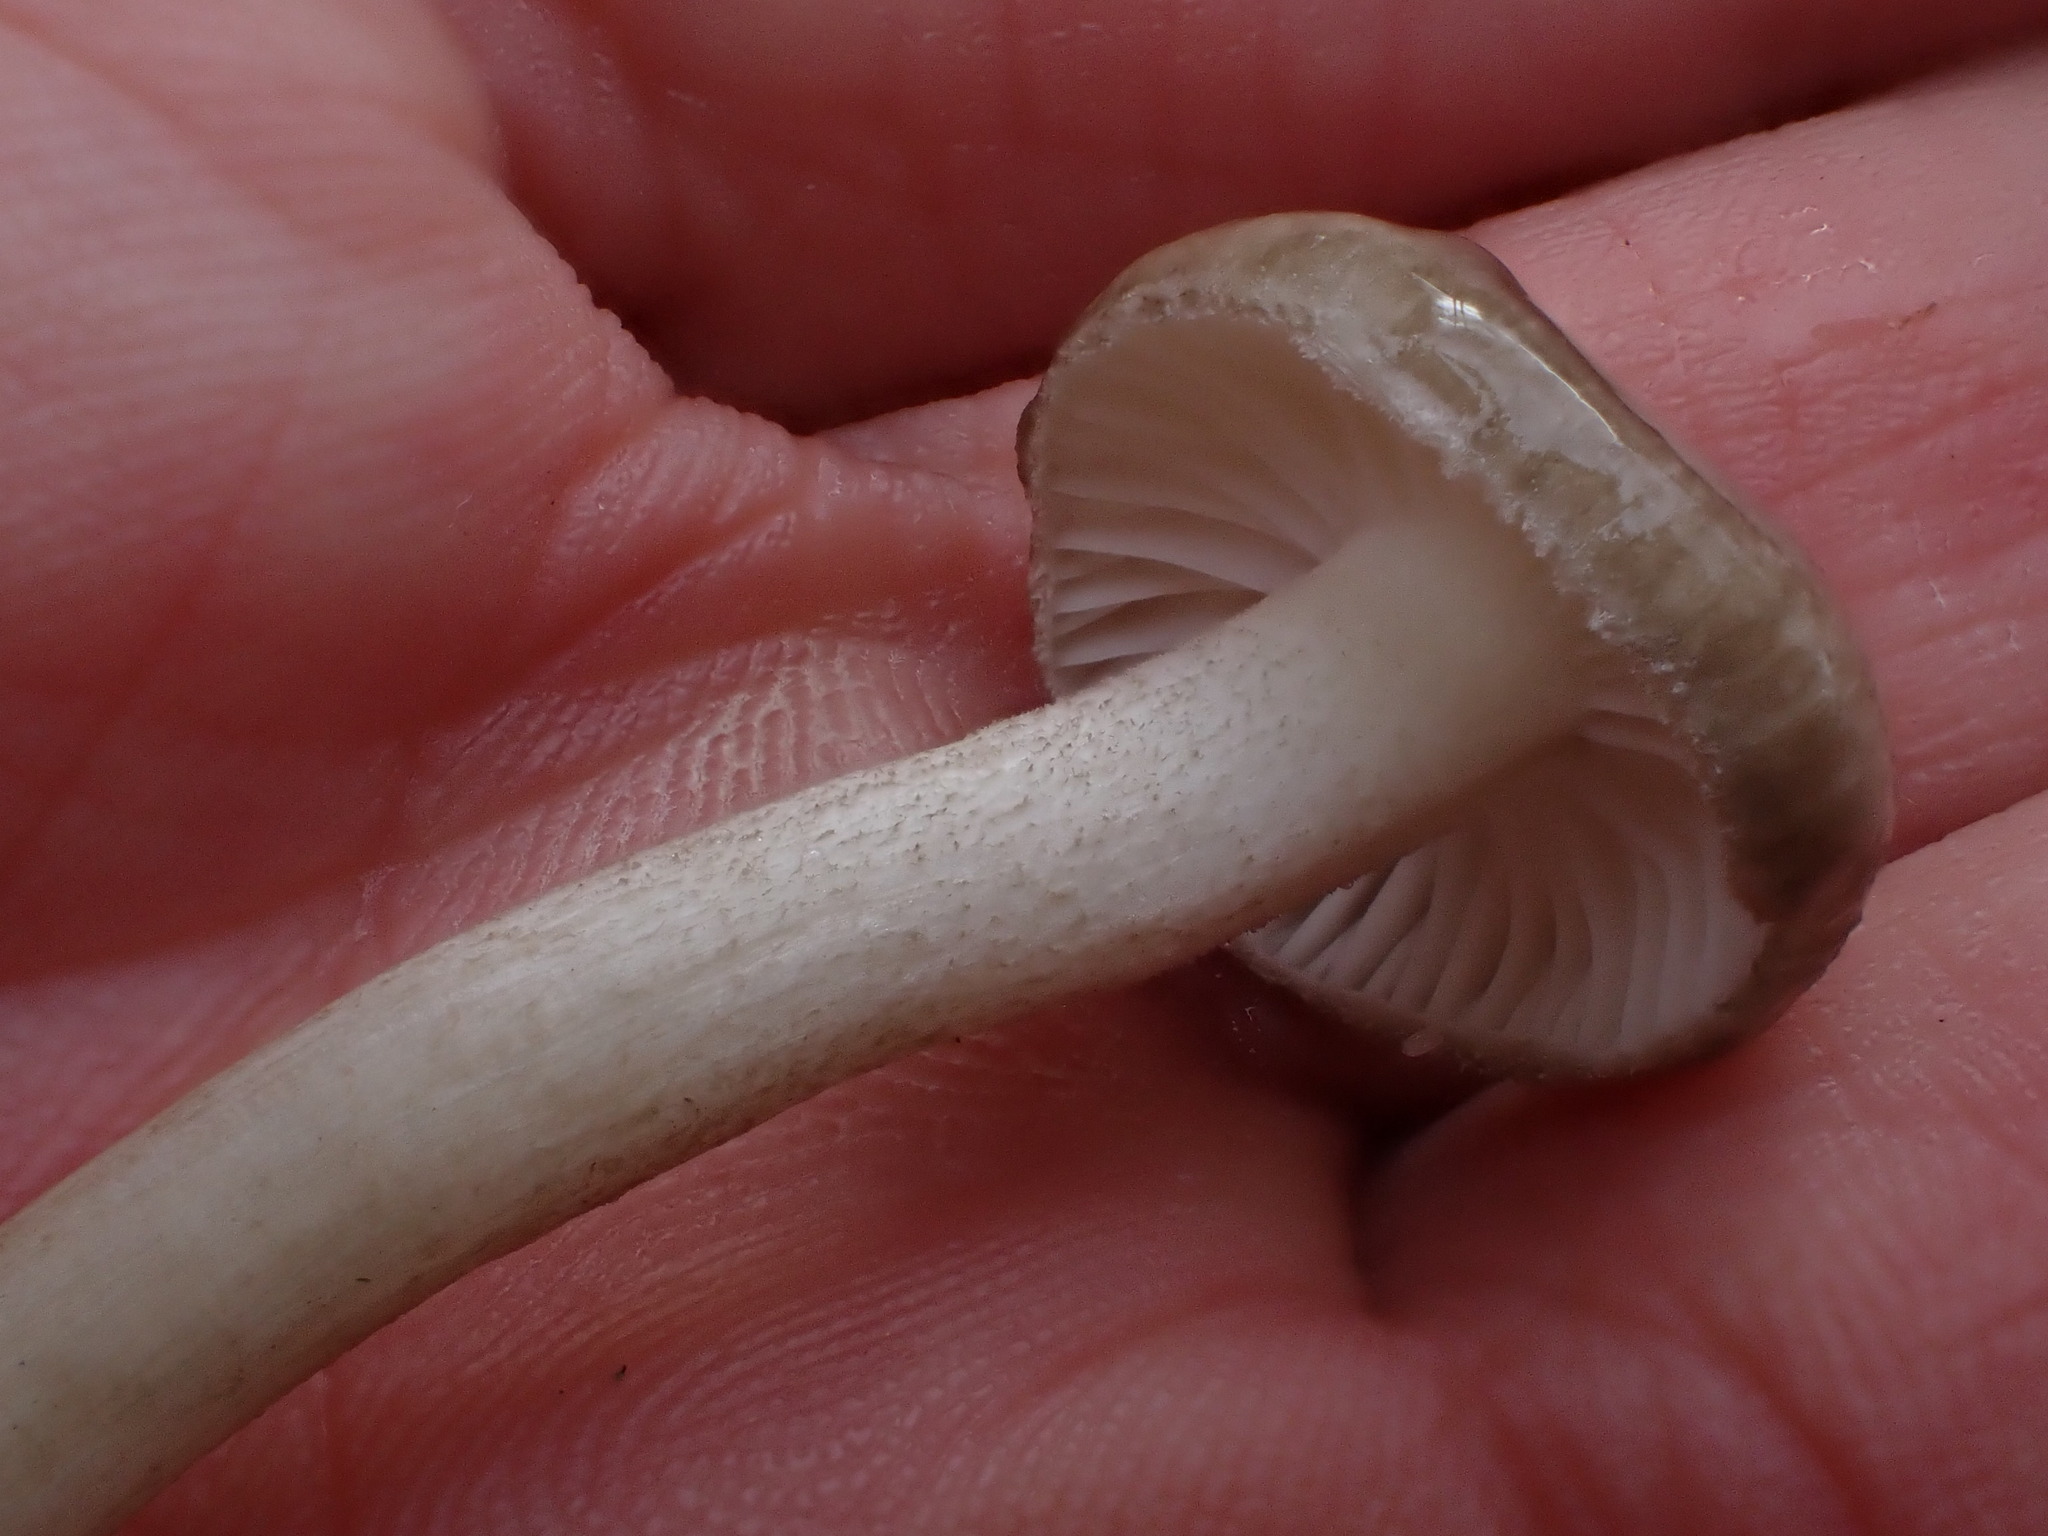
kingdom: Fungi
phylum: Basidiomycota
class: Agaricomycetes
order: Agaricales
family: Hygrophoraceae
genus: Hygrophorus
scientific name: Hygrophorus pustulatus
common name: Blistered woodwax
